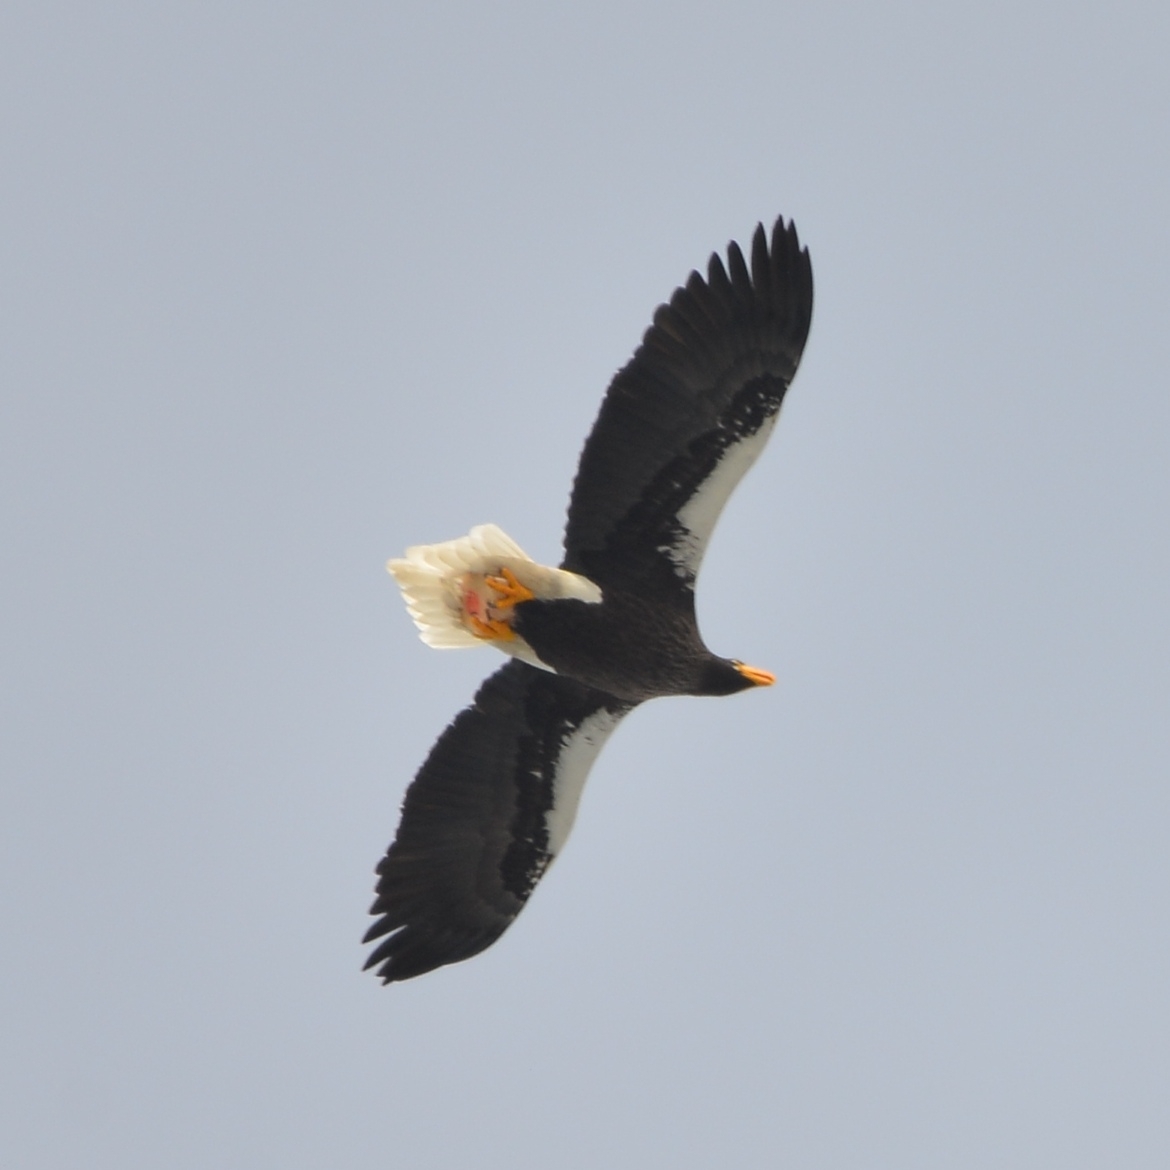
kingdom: Animalia
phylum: Chordata
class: Aves
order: Accipitriformes
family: Accipitridae
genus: Haliaeetus
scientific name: Haliaeetus pelagicus
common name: Steller's sea eagle
